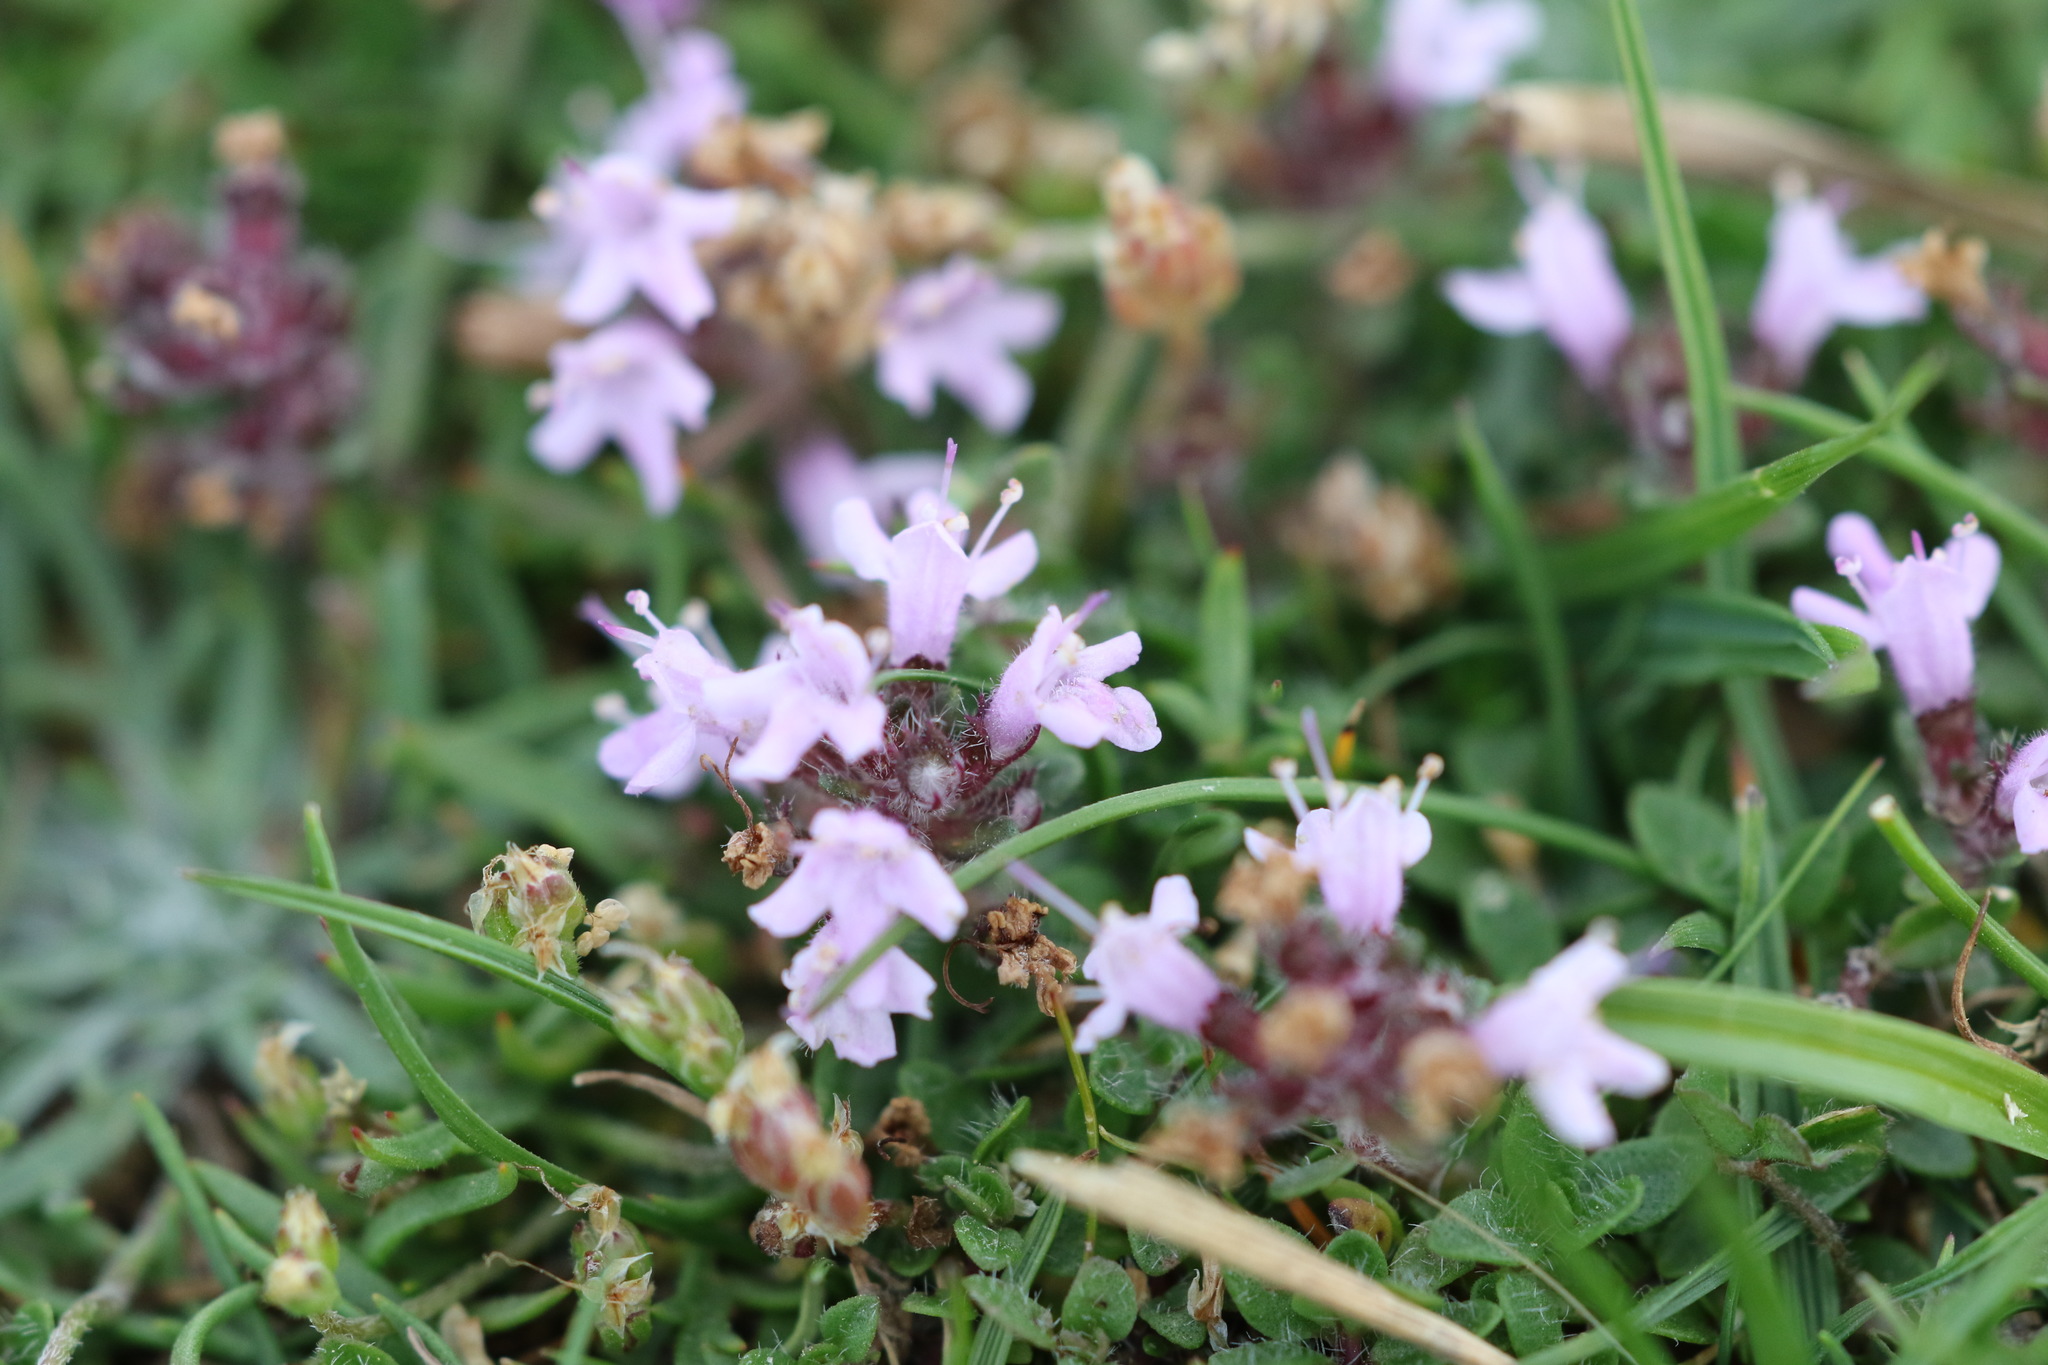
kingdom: Plantae
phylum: Tracheophyta
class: Magnoliopsida
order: Lamiales
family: Lamiaceae
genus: Thymus
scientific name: Thymus praecox
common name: Wild thyme
